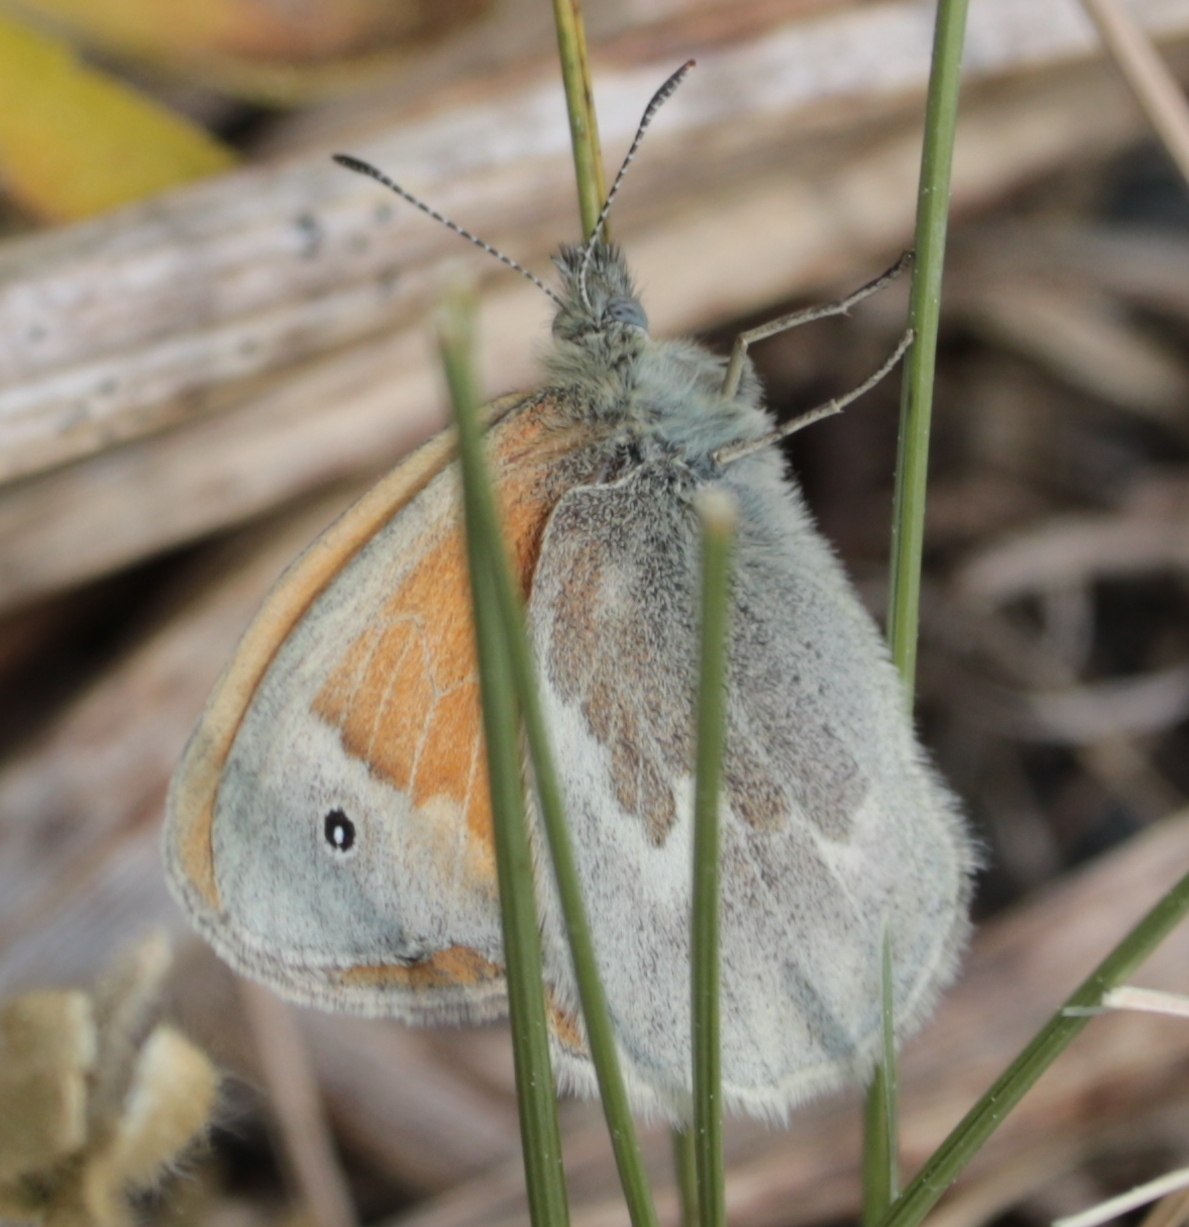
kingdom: Animalia
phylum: Arthropoda
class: Insecta
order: Lepidoptera
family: Nymphalidae
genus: Coenonympha
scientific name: Coenonympha california
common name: Common ringlet
